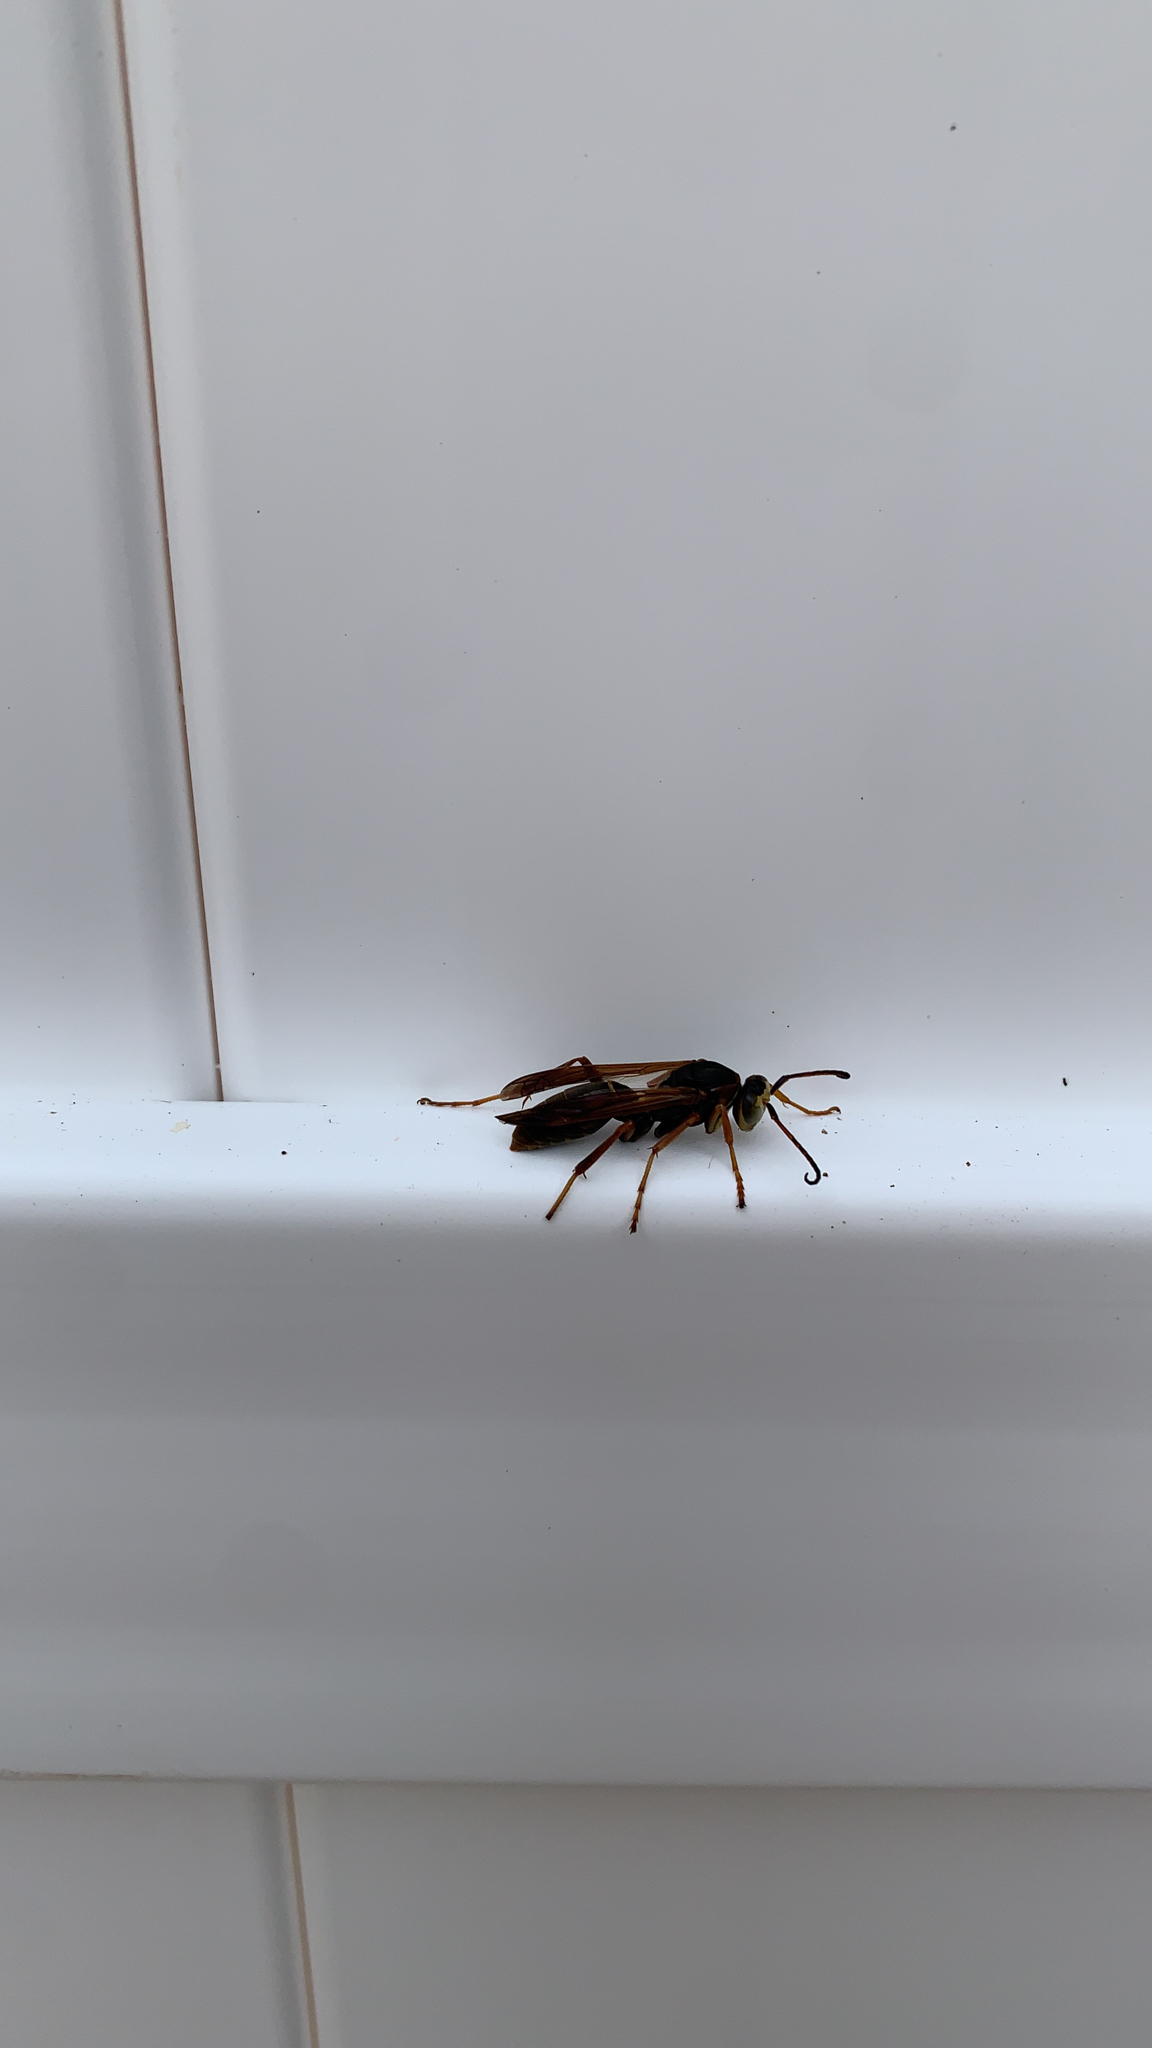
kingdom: Animalia
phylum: Arthropoda
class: Insecta
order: Hymenoptera
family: Eumenidae
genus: Polistes
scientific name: Polistes fuscatus
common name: Dark paper wasp
